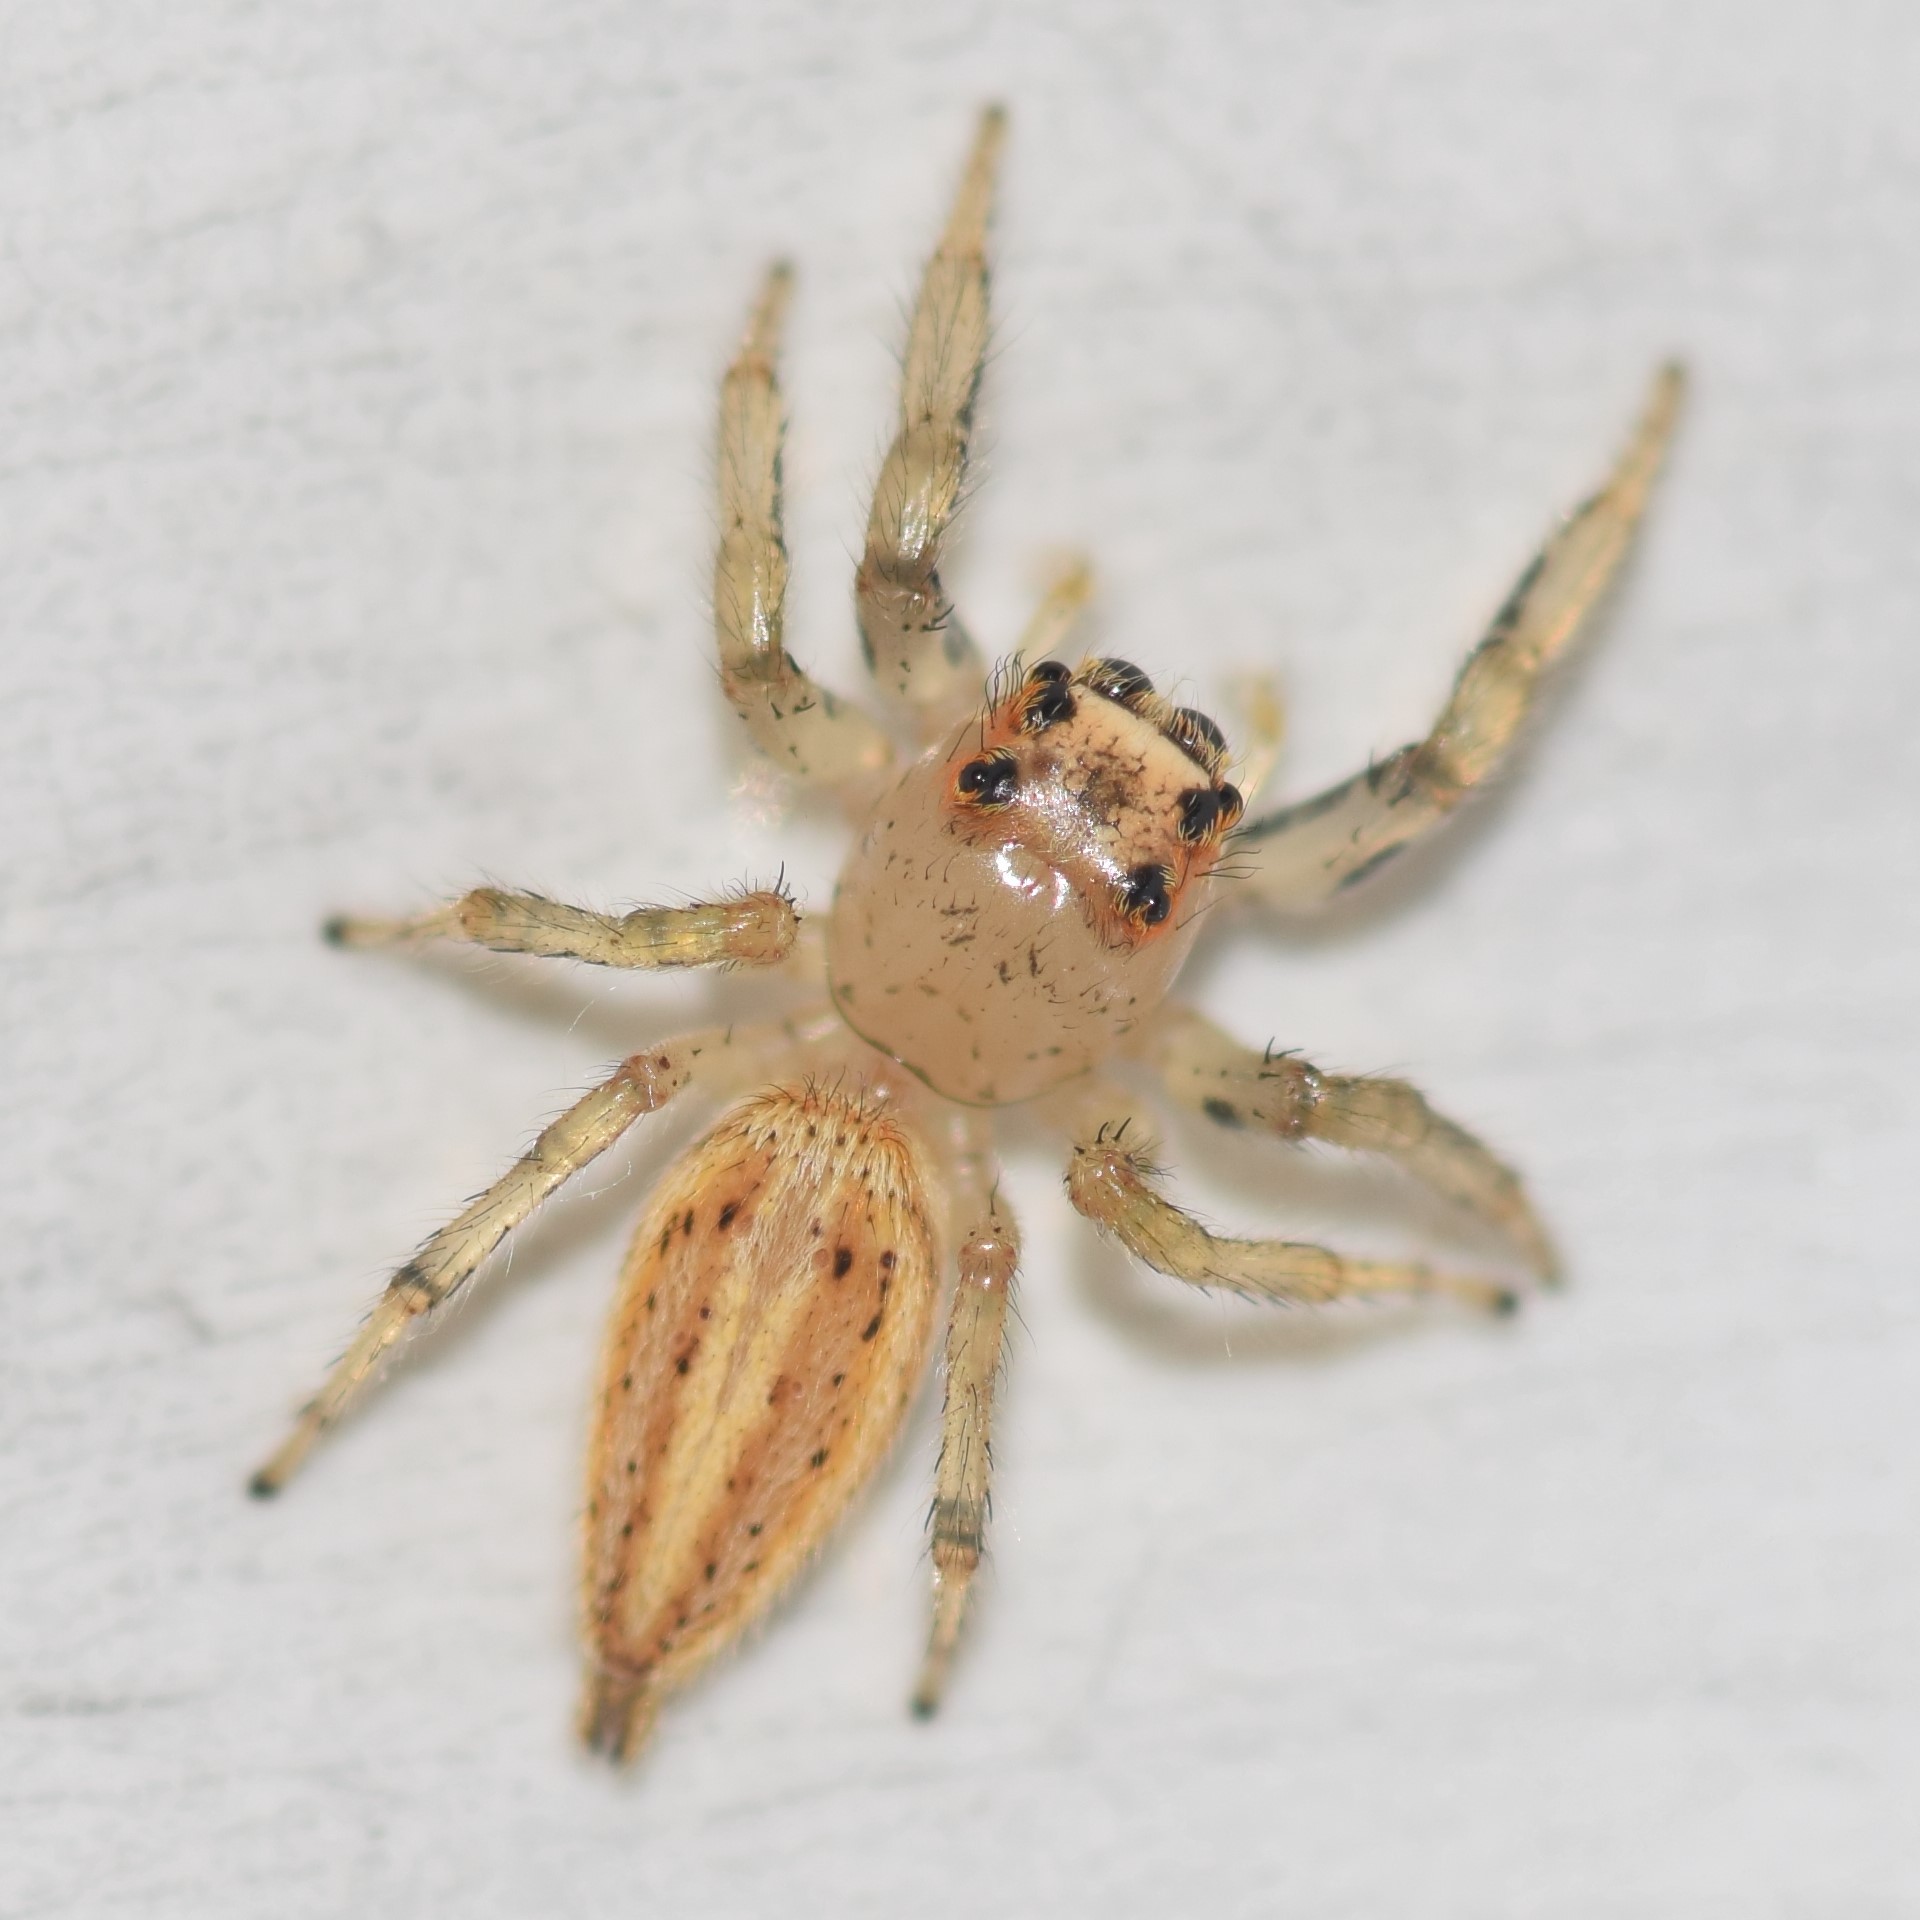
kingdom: Animalia
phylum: Arthropoda
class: Arachnida
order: Araneae
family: Salticidae
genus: Colonus
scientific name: Colonus sylvanus
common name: Jumping spiders
